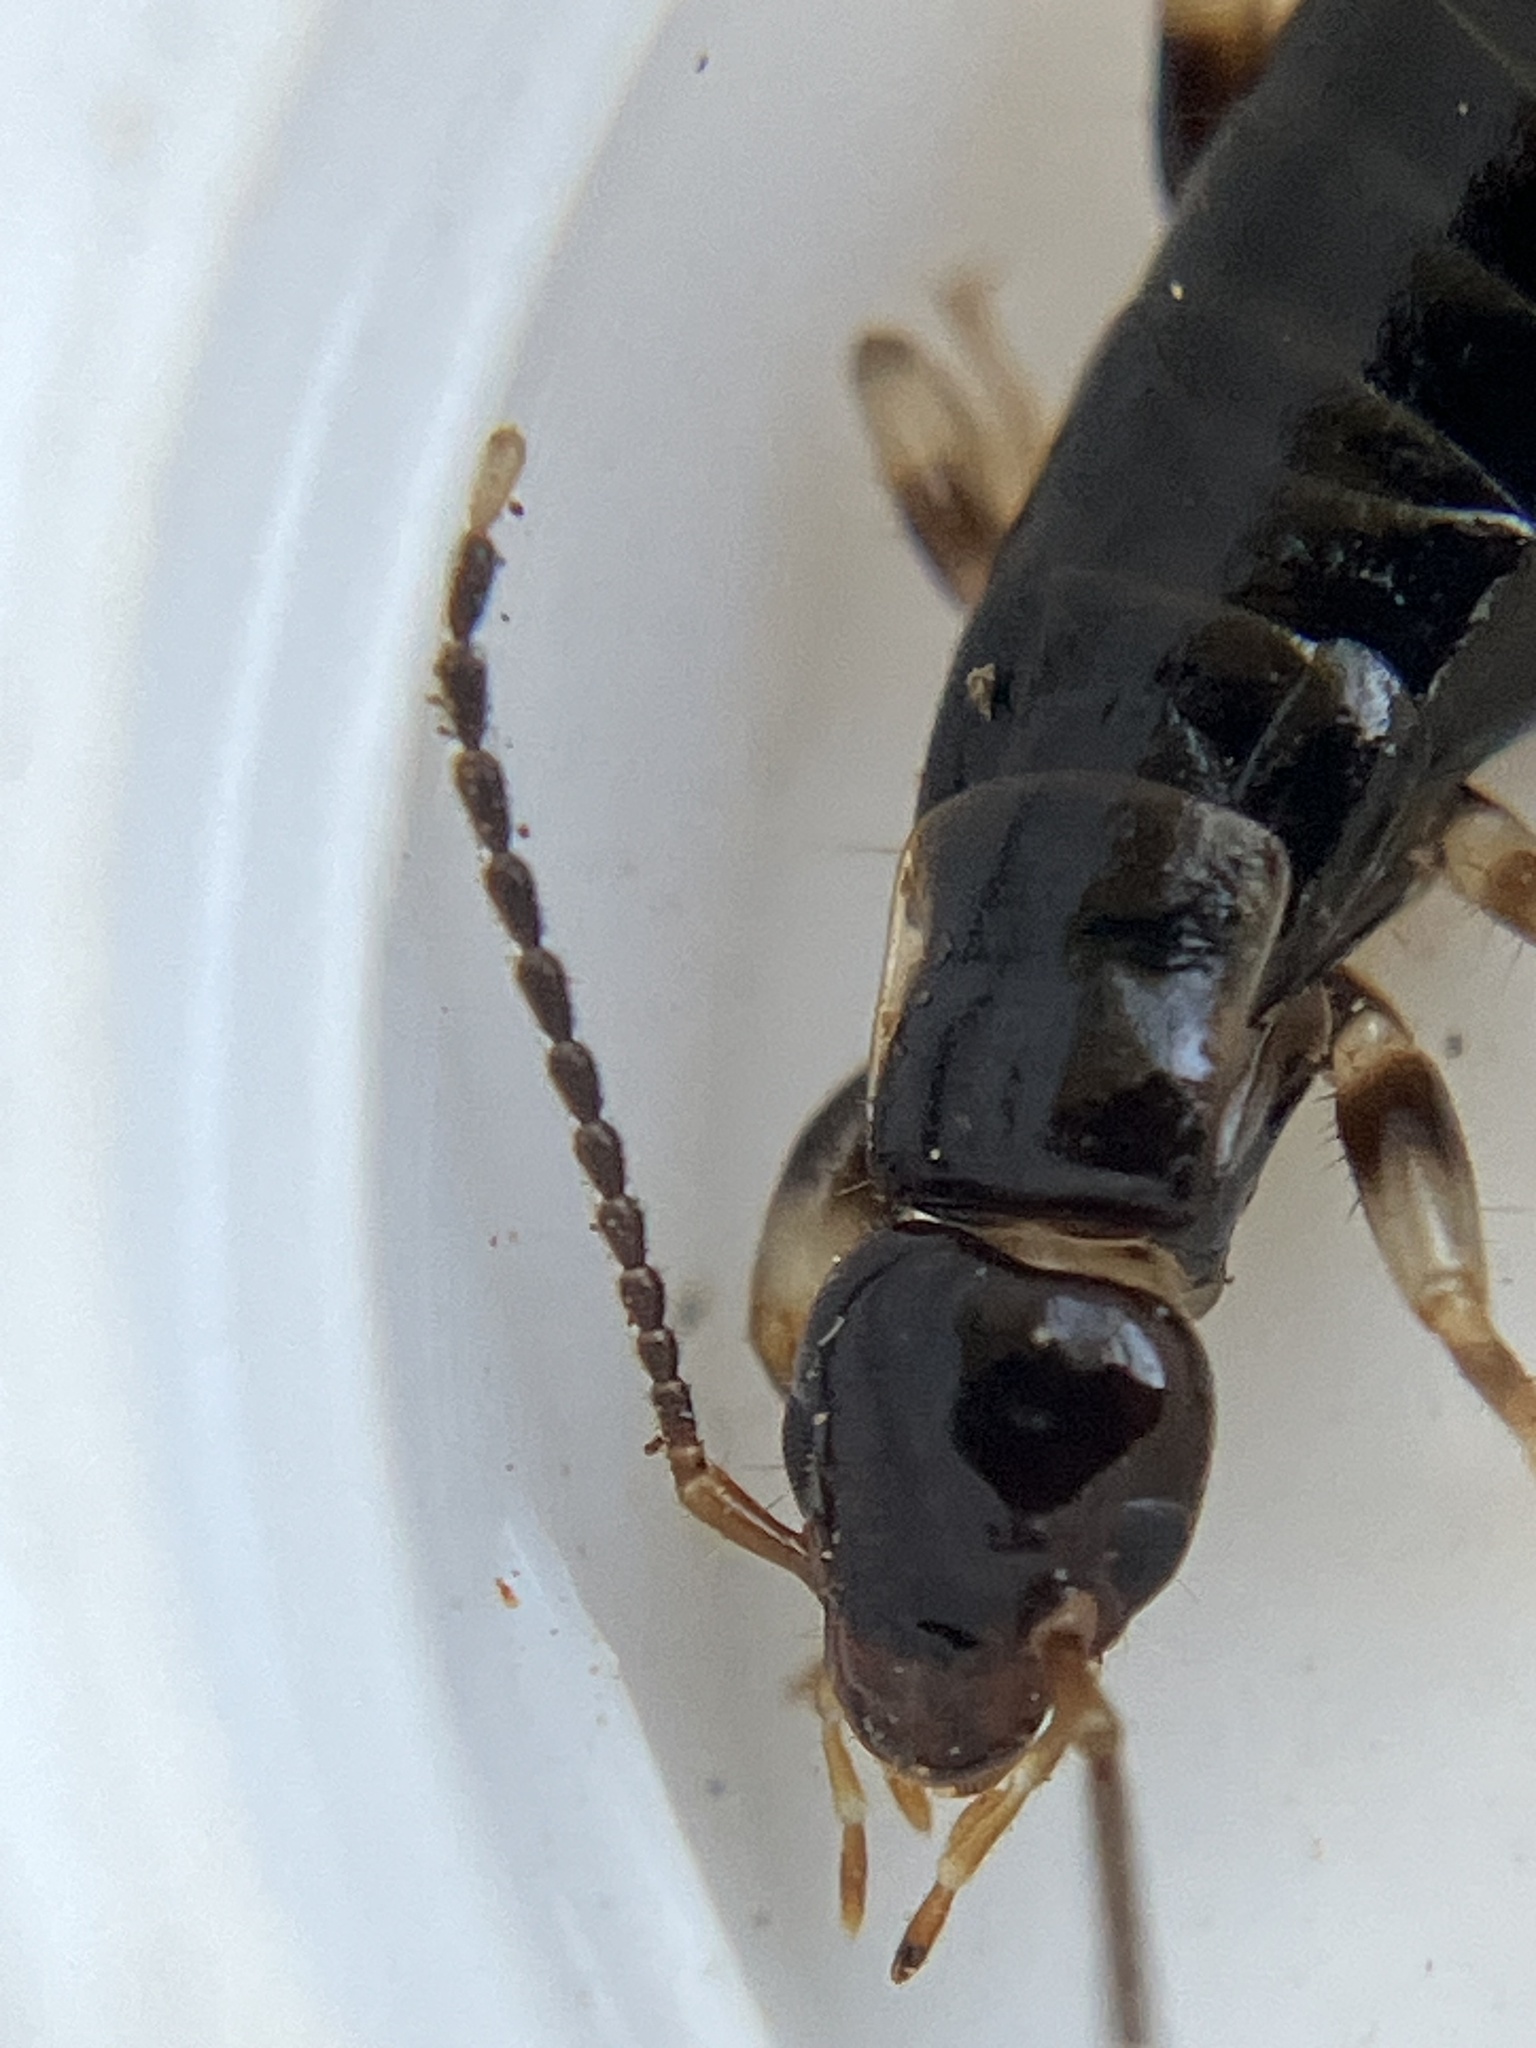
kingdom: Animalia
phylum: Arthropoda
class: Insecta
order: Dermaptera
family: Anisolabididae
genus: Euborellia
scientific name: Euborellia annulata
